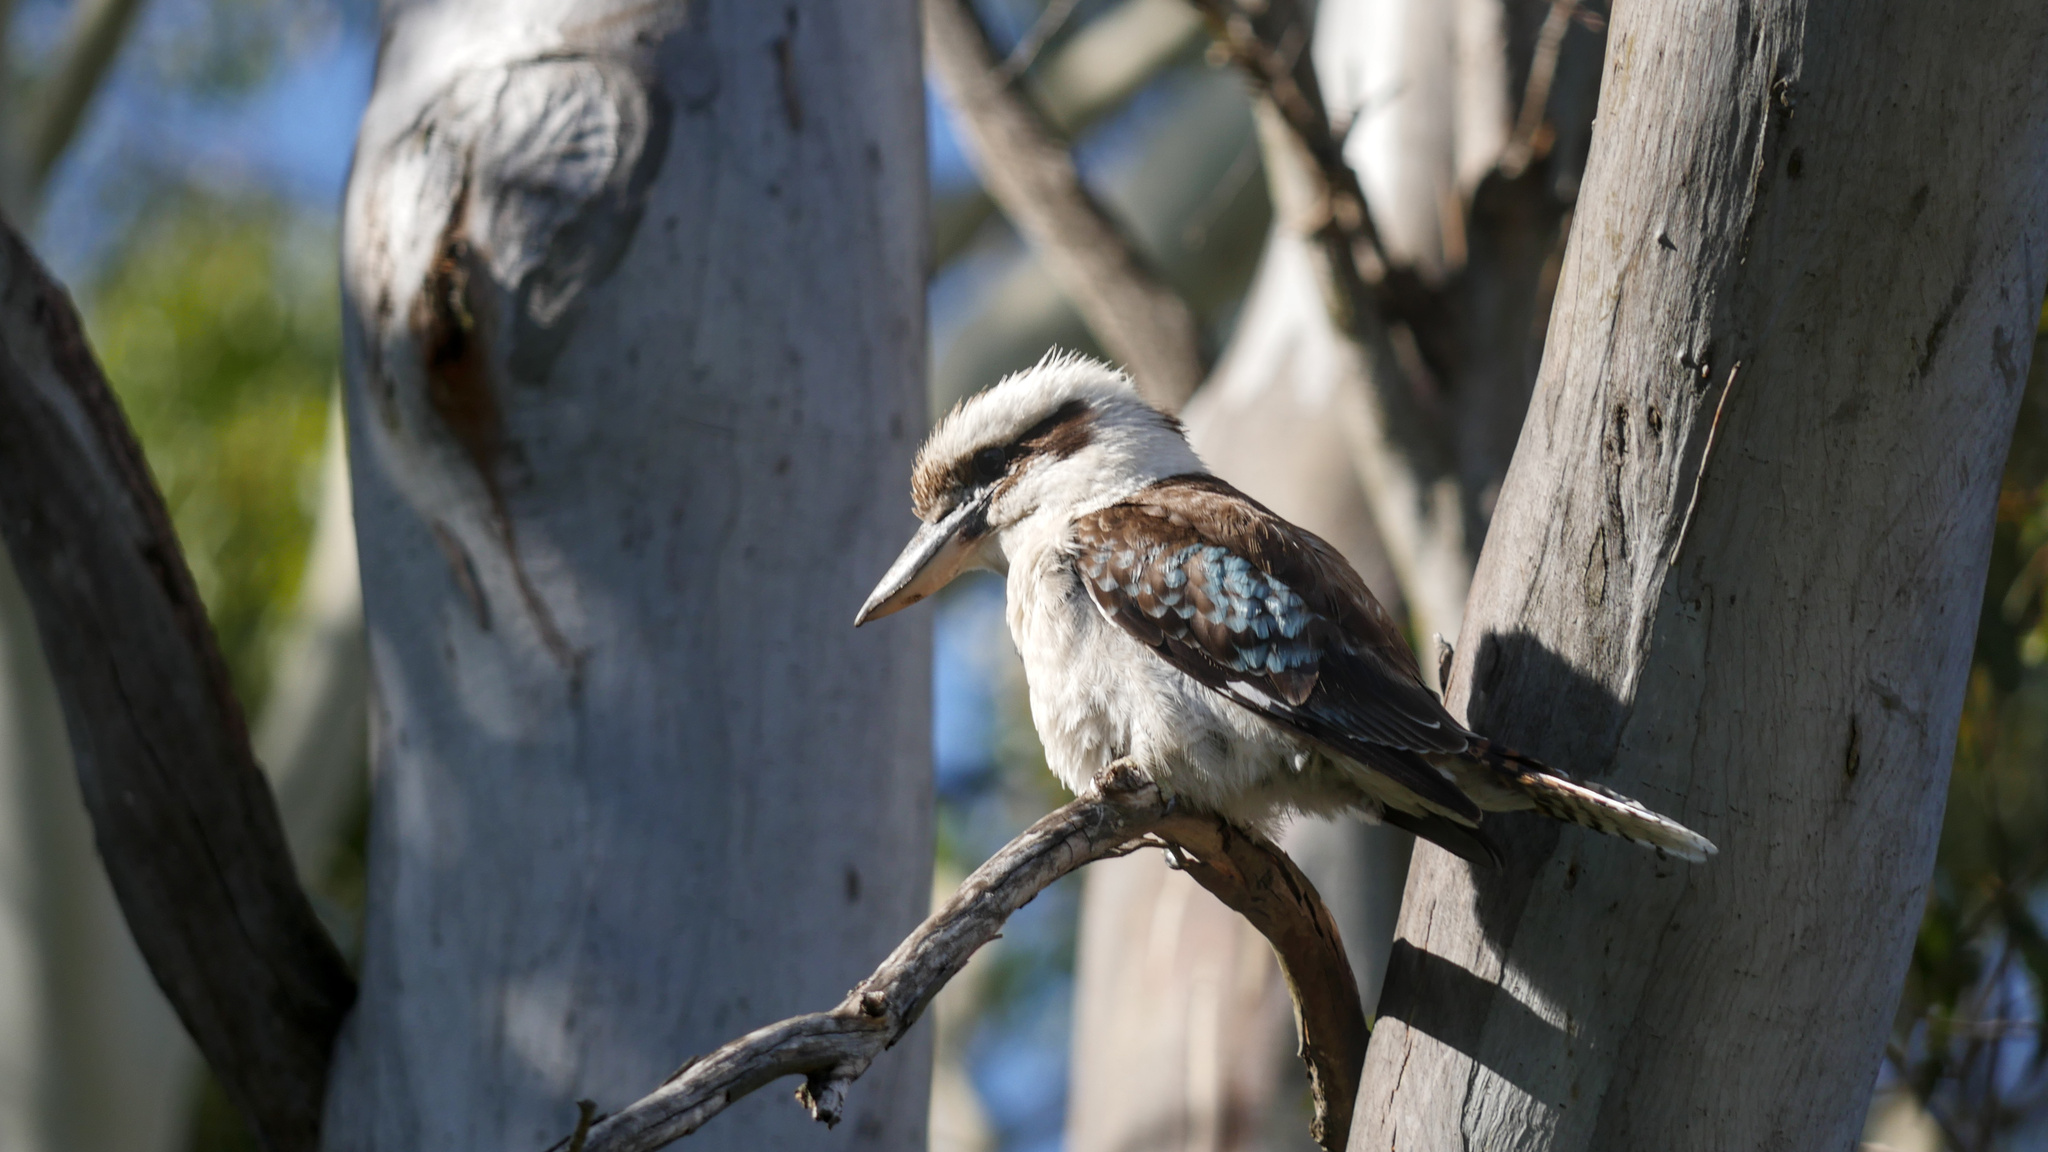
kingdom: Animalia
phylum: Chordata
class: Aves
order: Coraciiformes
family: Alcedinidae
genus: Dacelo
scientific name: Dacelo novaeguineae
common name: Laughing kookaburra
